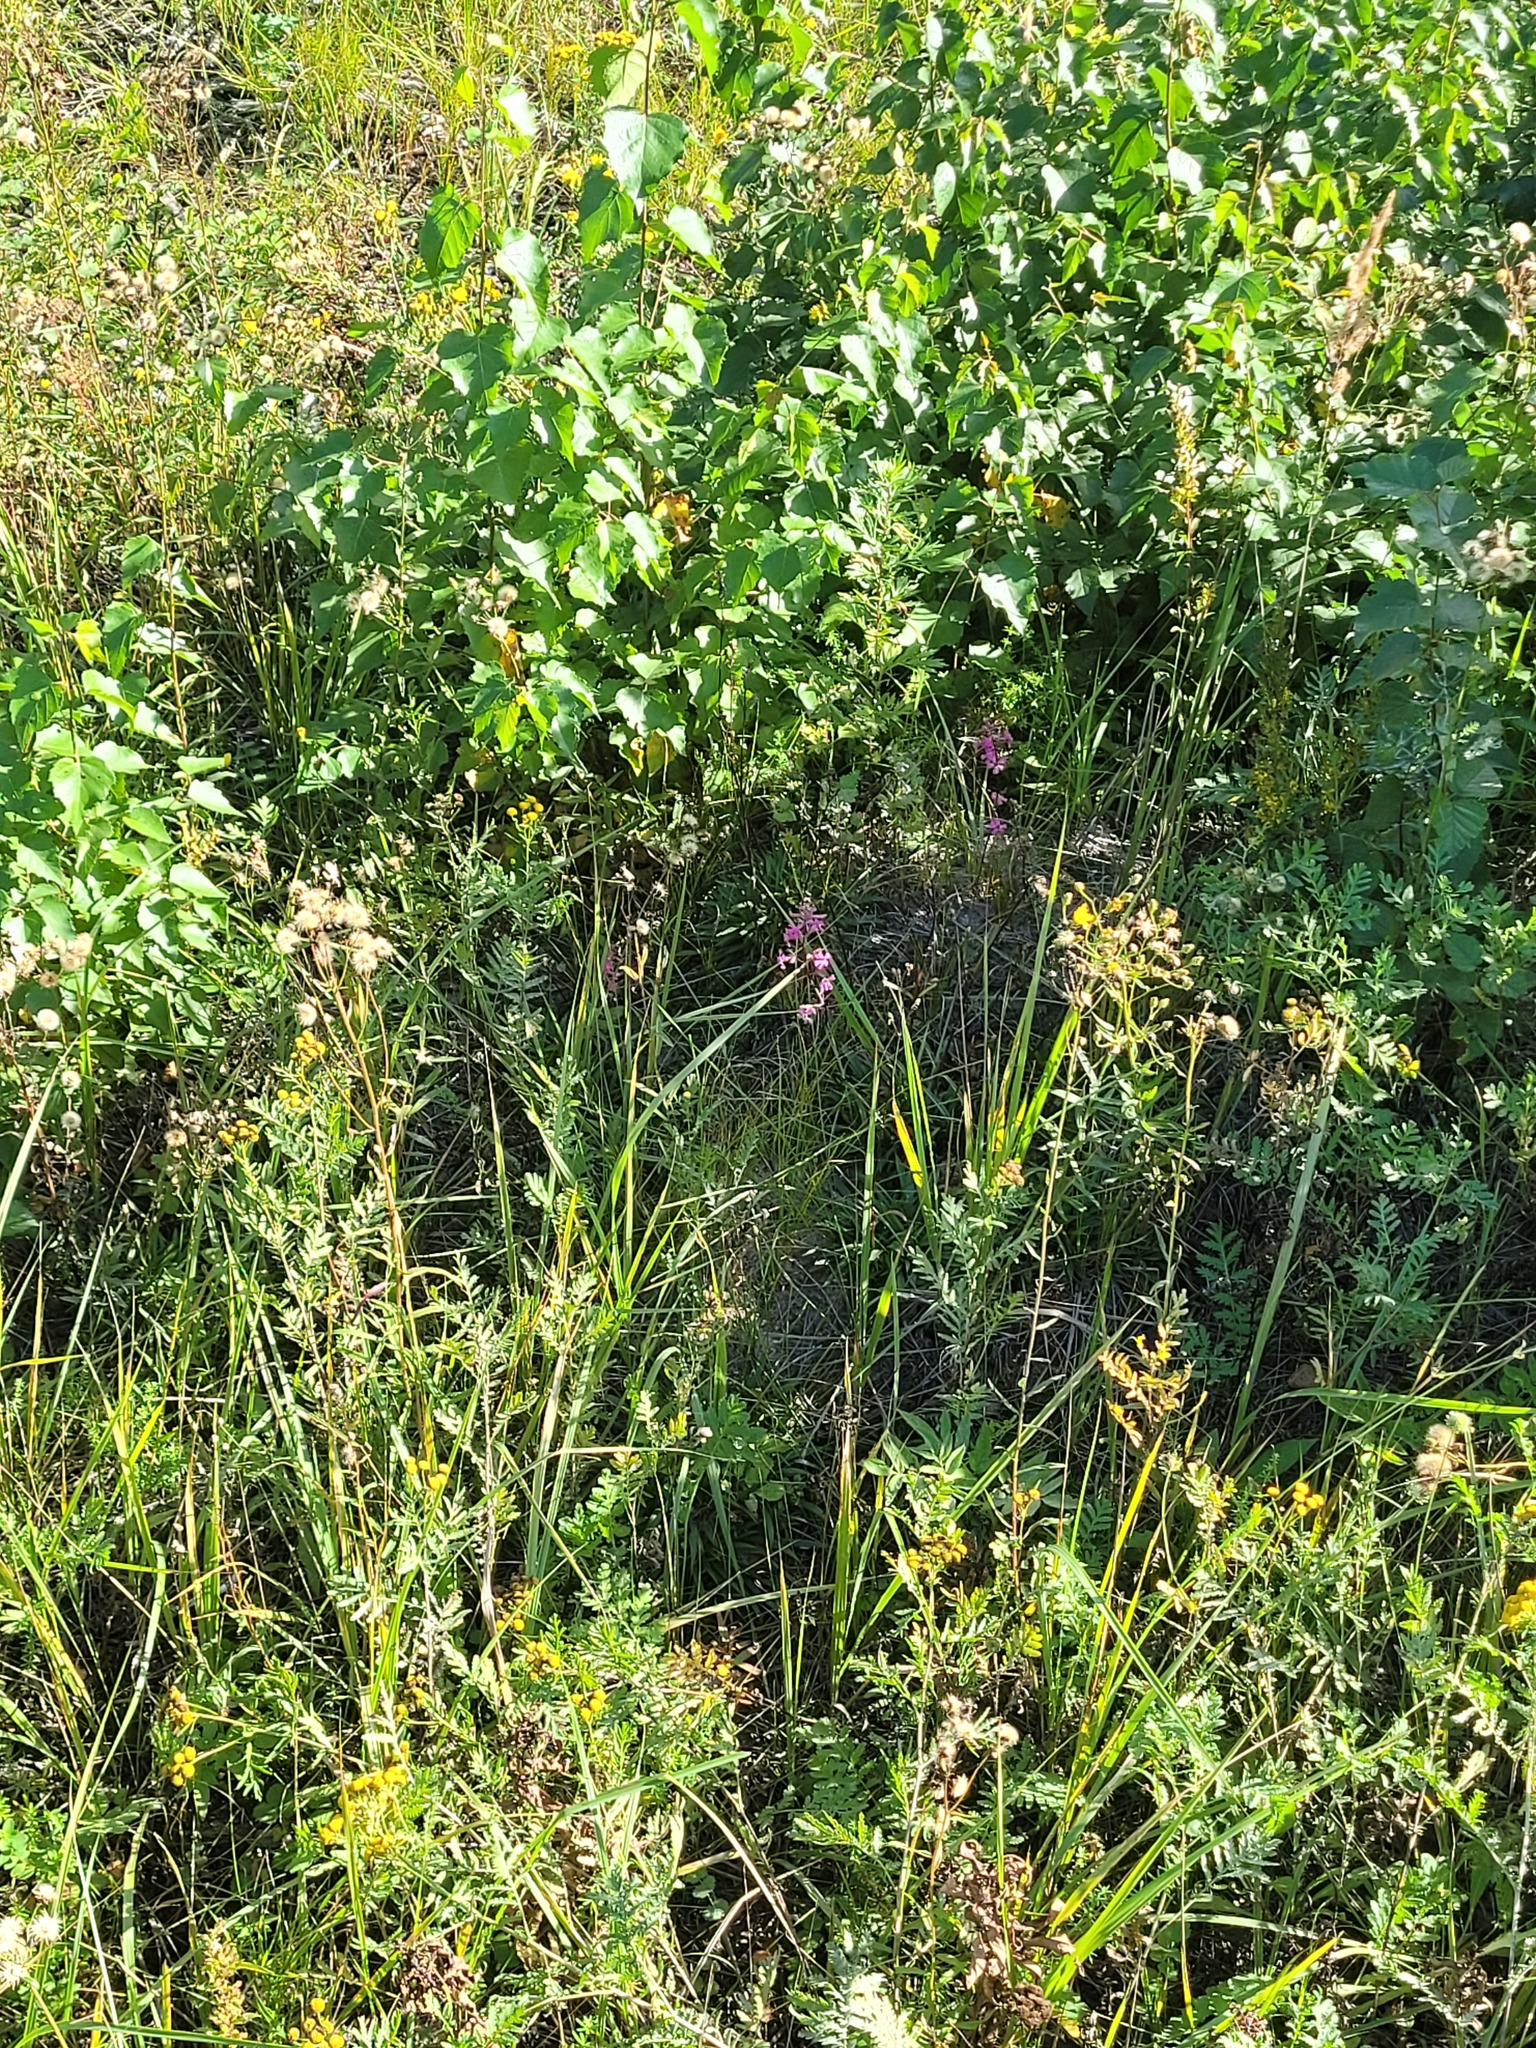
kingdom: Plantae
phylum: Tracheophyta
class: Magnoliopsida
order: Caryophyllales
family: Caryophyllaceae
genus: Viscaria
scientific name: Viscaria vulgaris
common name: Clammy campion
